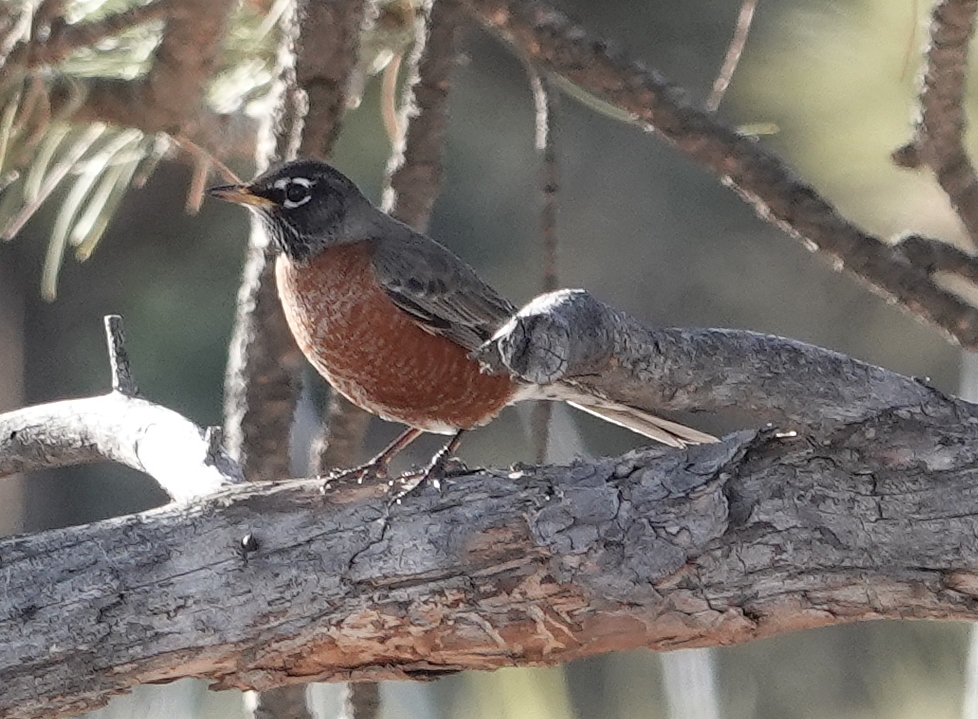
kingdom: Animalia
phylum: Chordata
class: Aves
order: Passeriformes
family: Turdidae
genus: Turdus
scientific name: Turdus migratorius
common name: American robin
